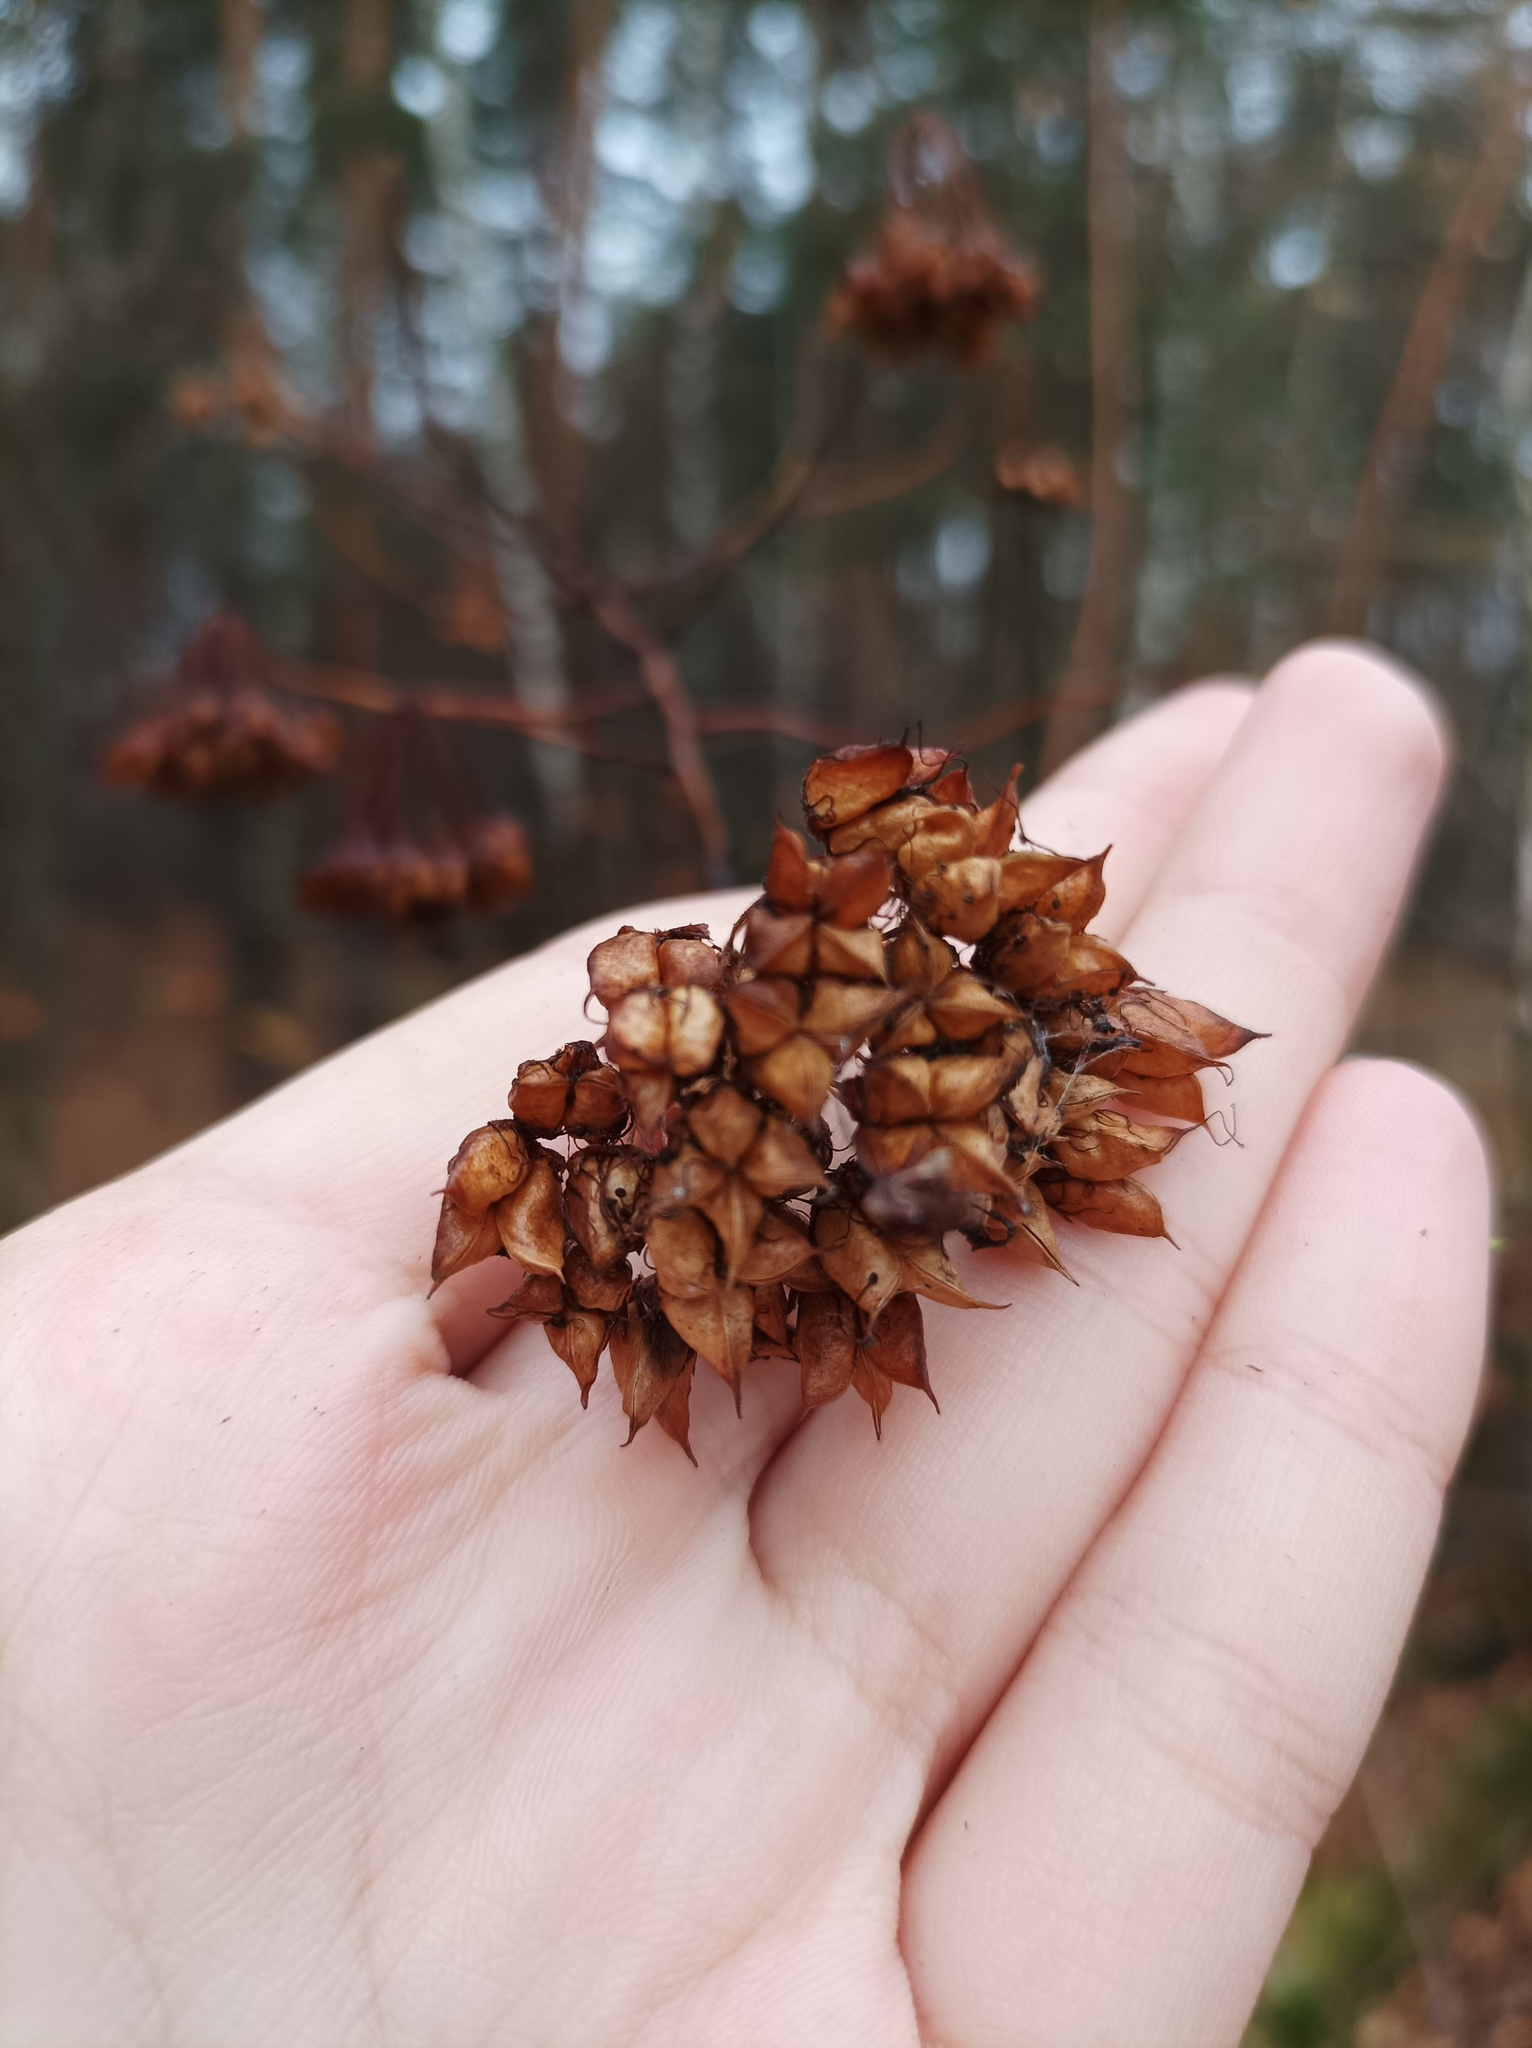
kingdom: Plantae
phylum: Tracheophyta
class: Magnoliopsida
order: Rosales
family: Rosaceae
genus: Physocarpus
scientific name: Physocarpus opulifolius
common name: Ninebark
